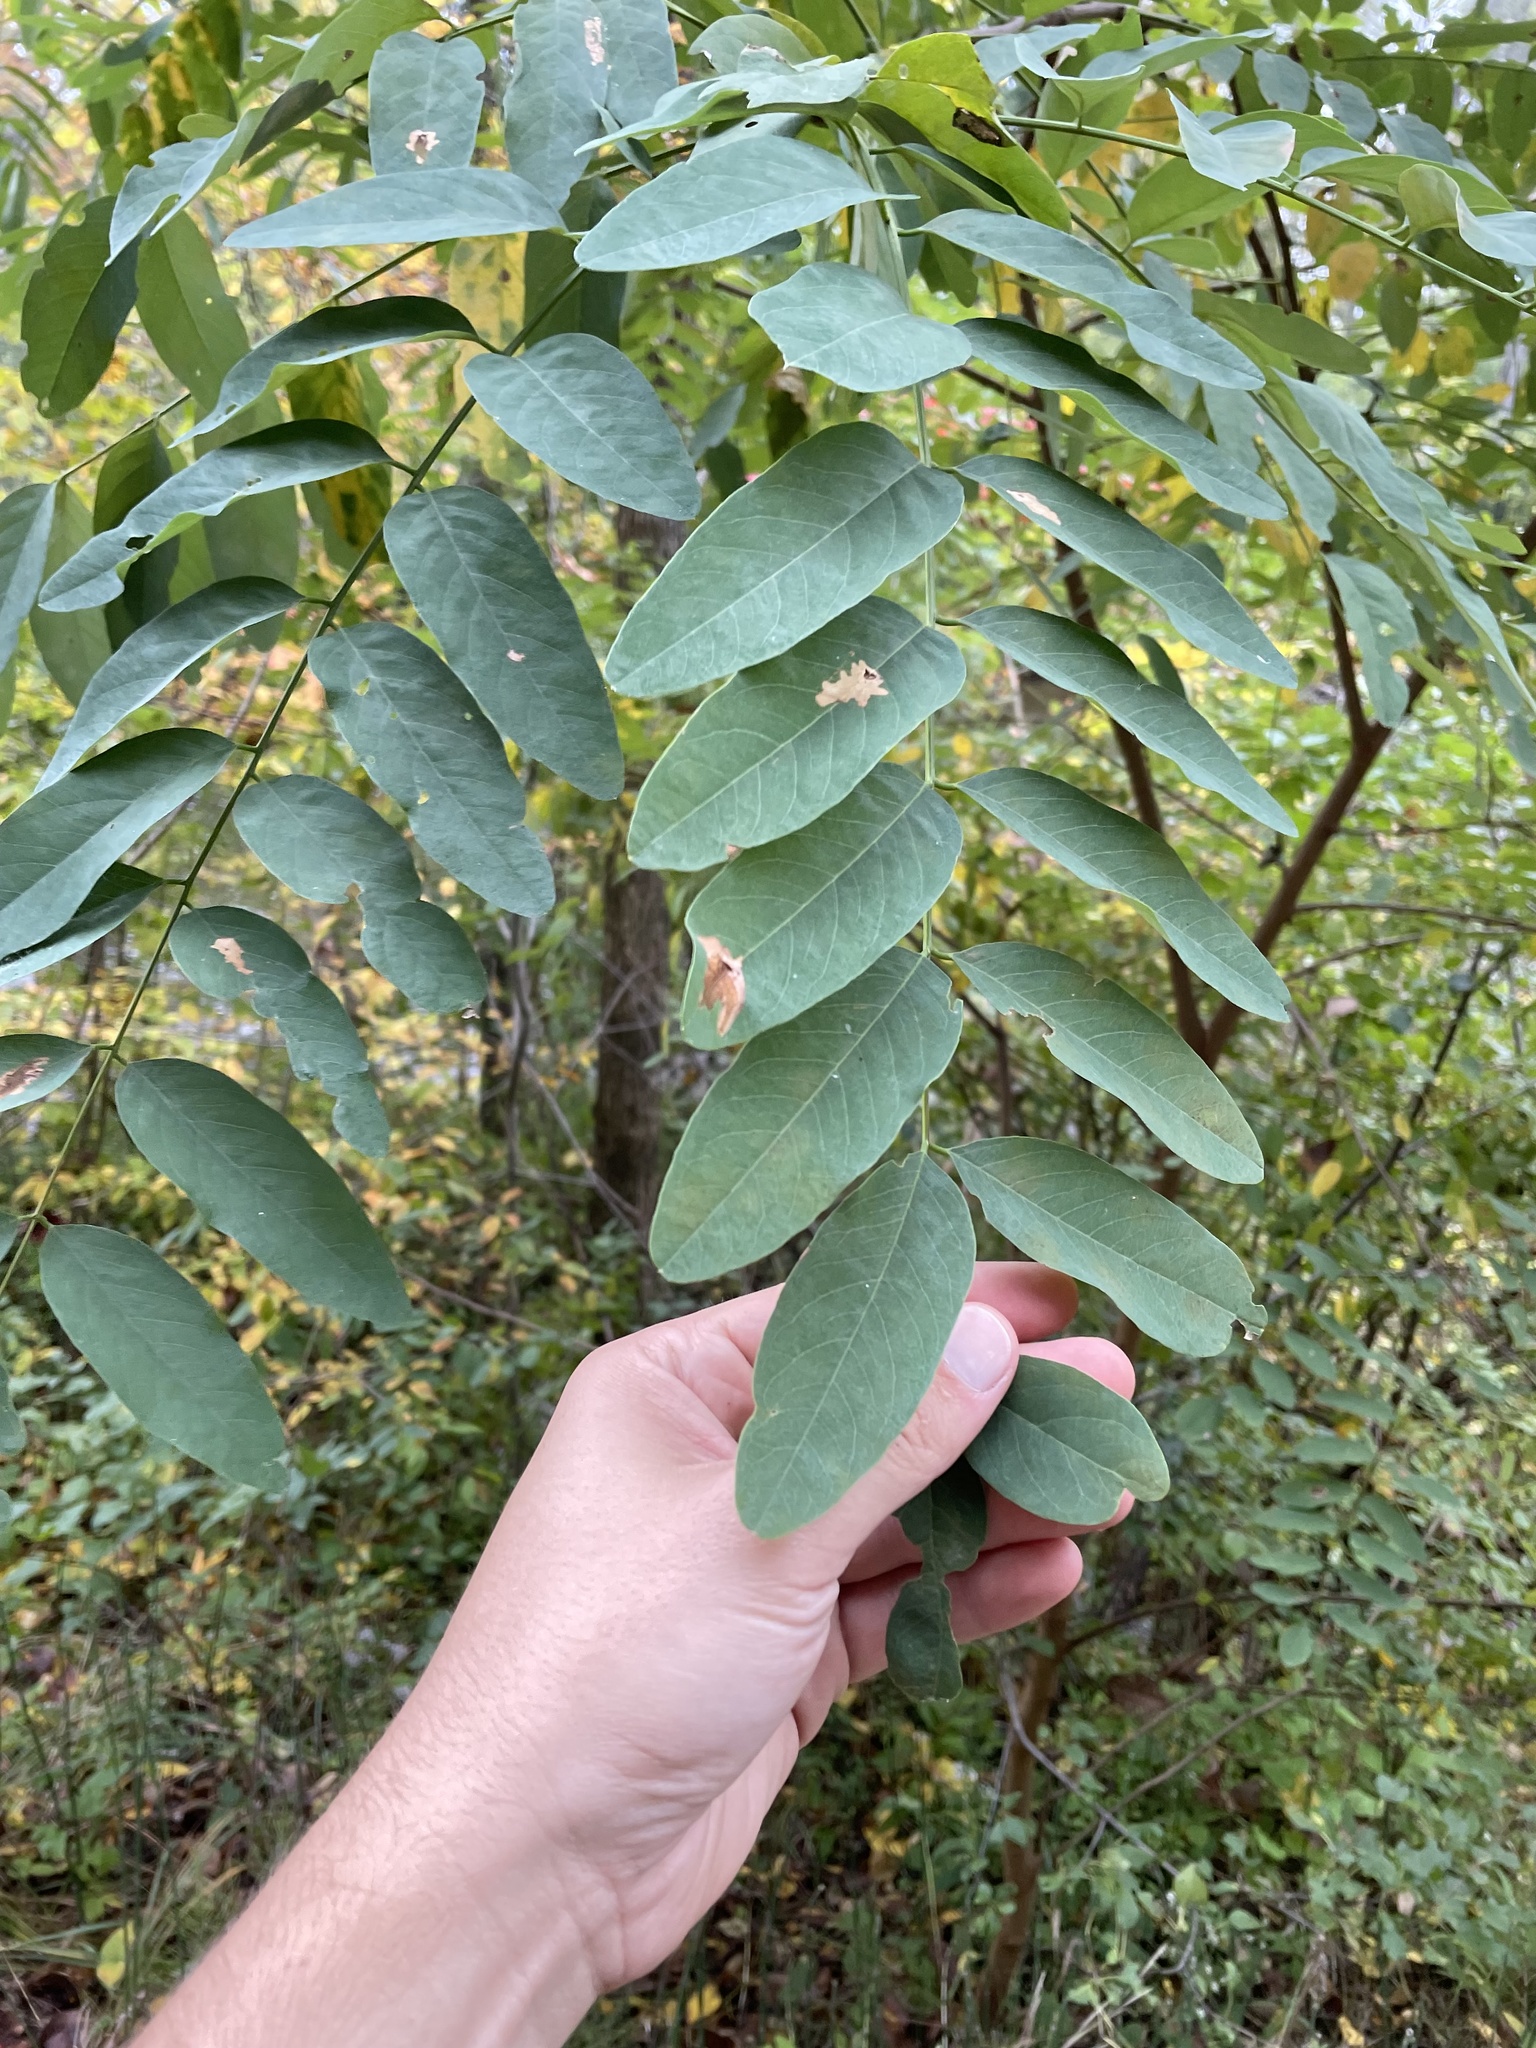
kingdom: Plantae
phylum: Tracheophyta
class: Magnoliopsida
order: Fabales
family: Fabaceae
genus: Robinia
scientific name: Robinia pseudoacacia
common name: Black locust
